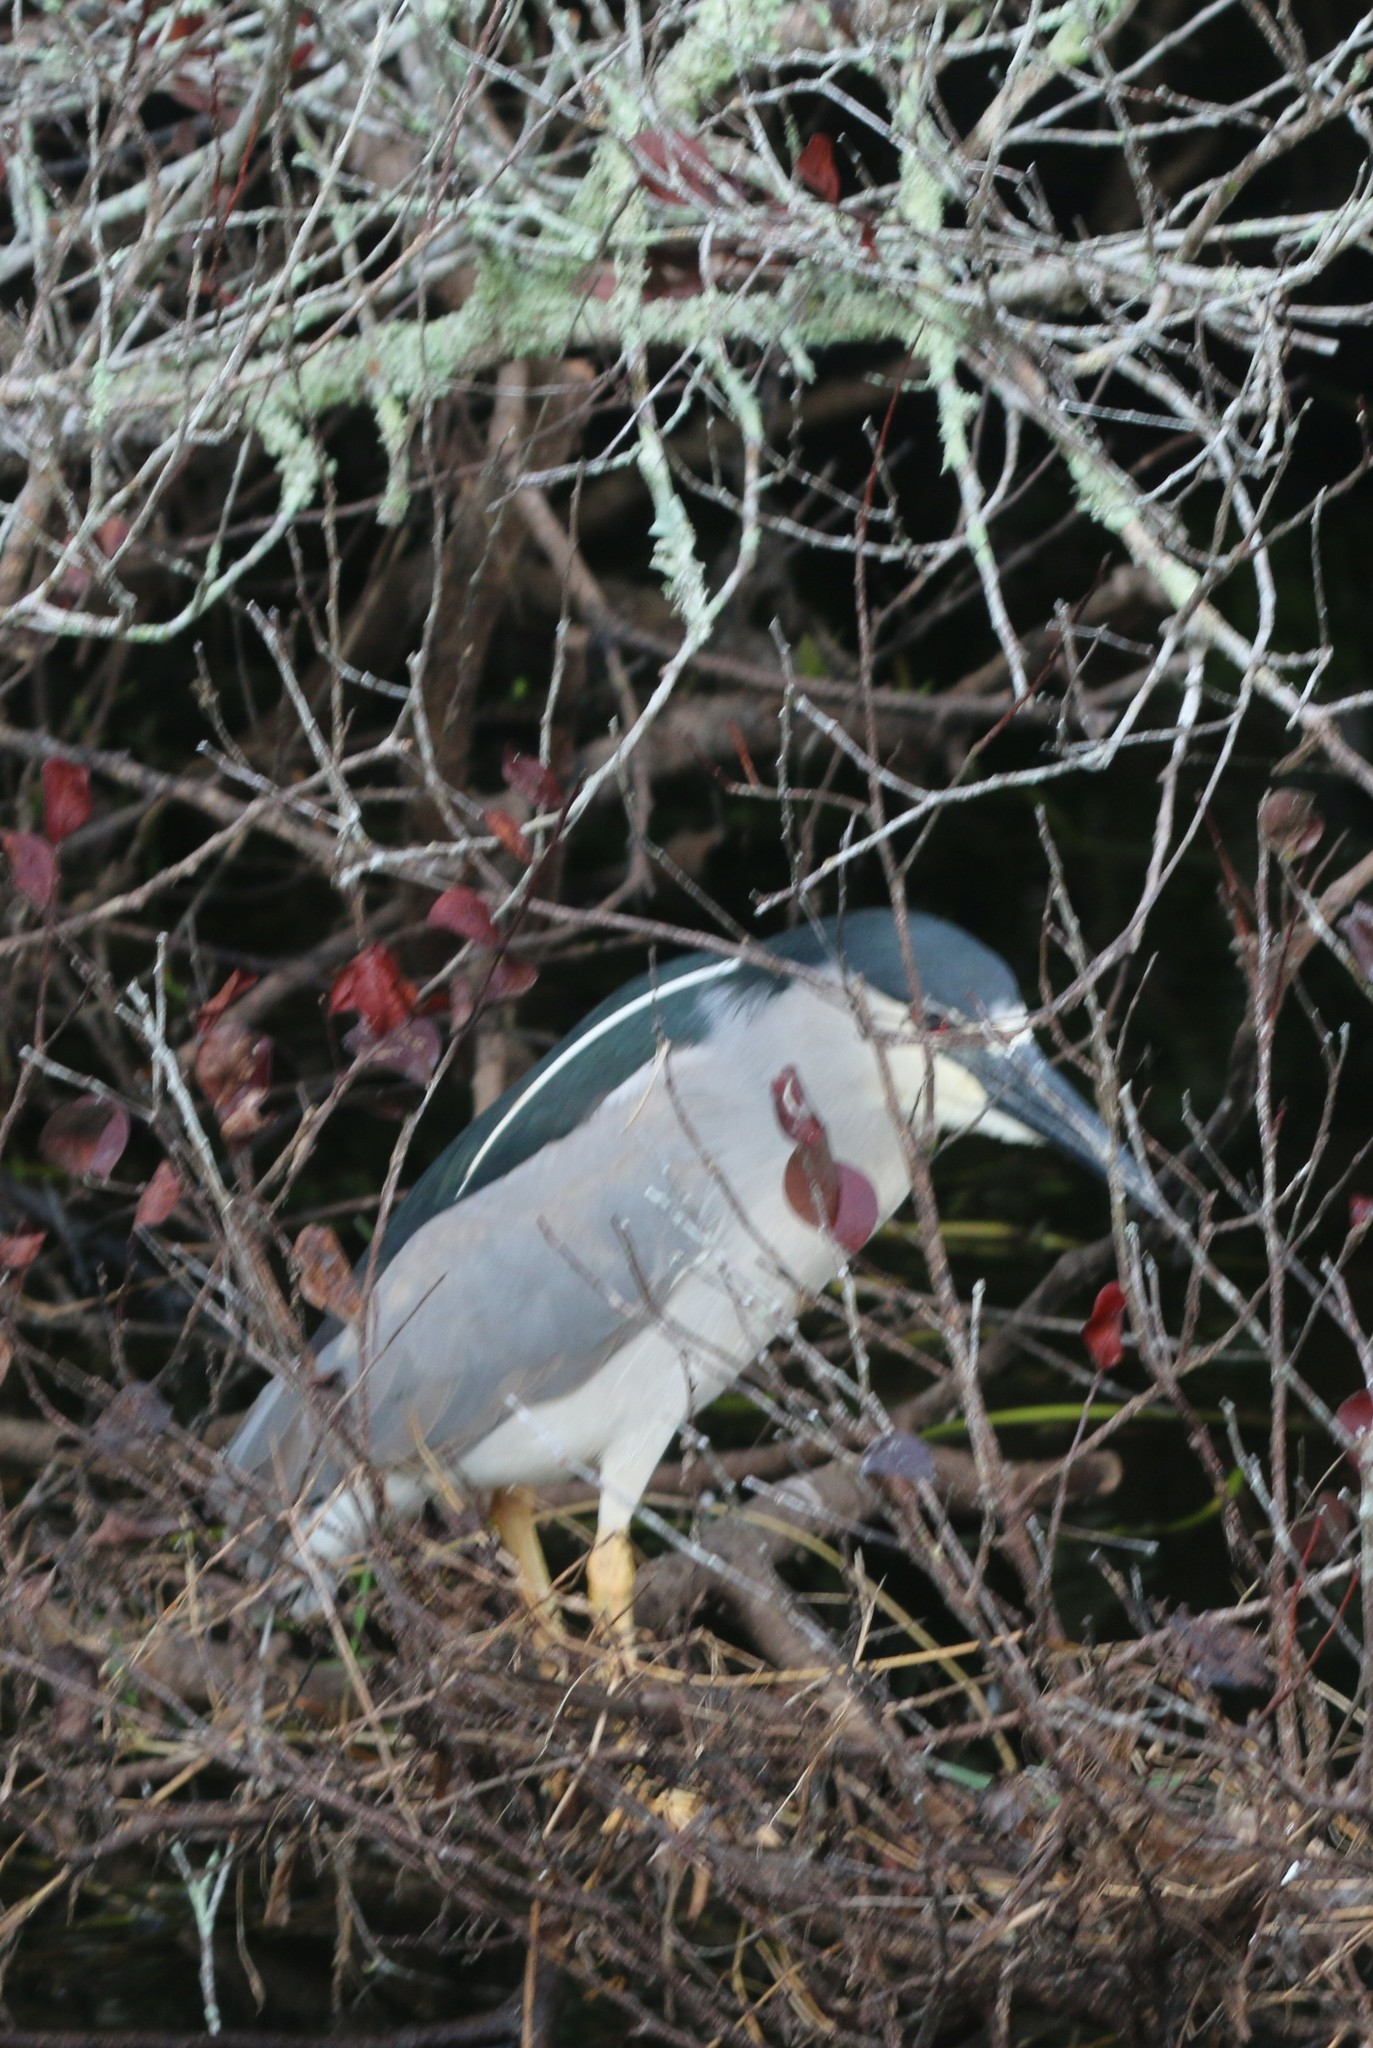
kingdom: Animalia
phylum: Chordata
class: Aves
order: Pelecaniformes
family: Ardeidae
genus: Nycticorax
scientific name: Nycticorax nycticorax
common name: Black-crowned night heron
